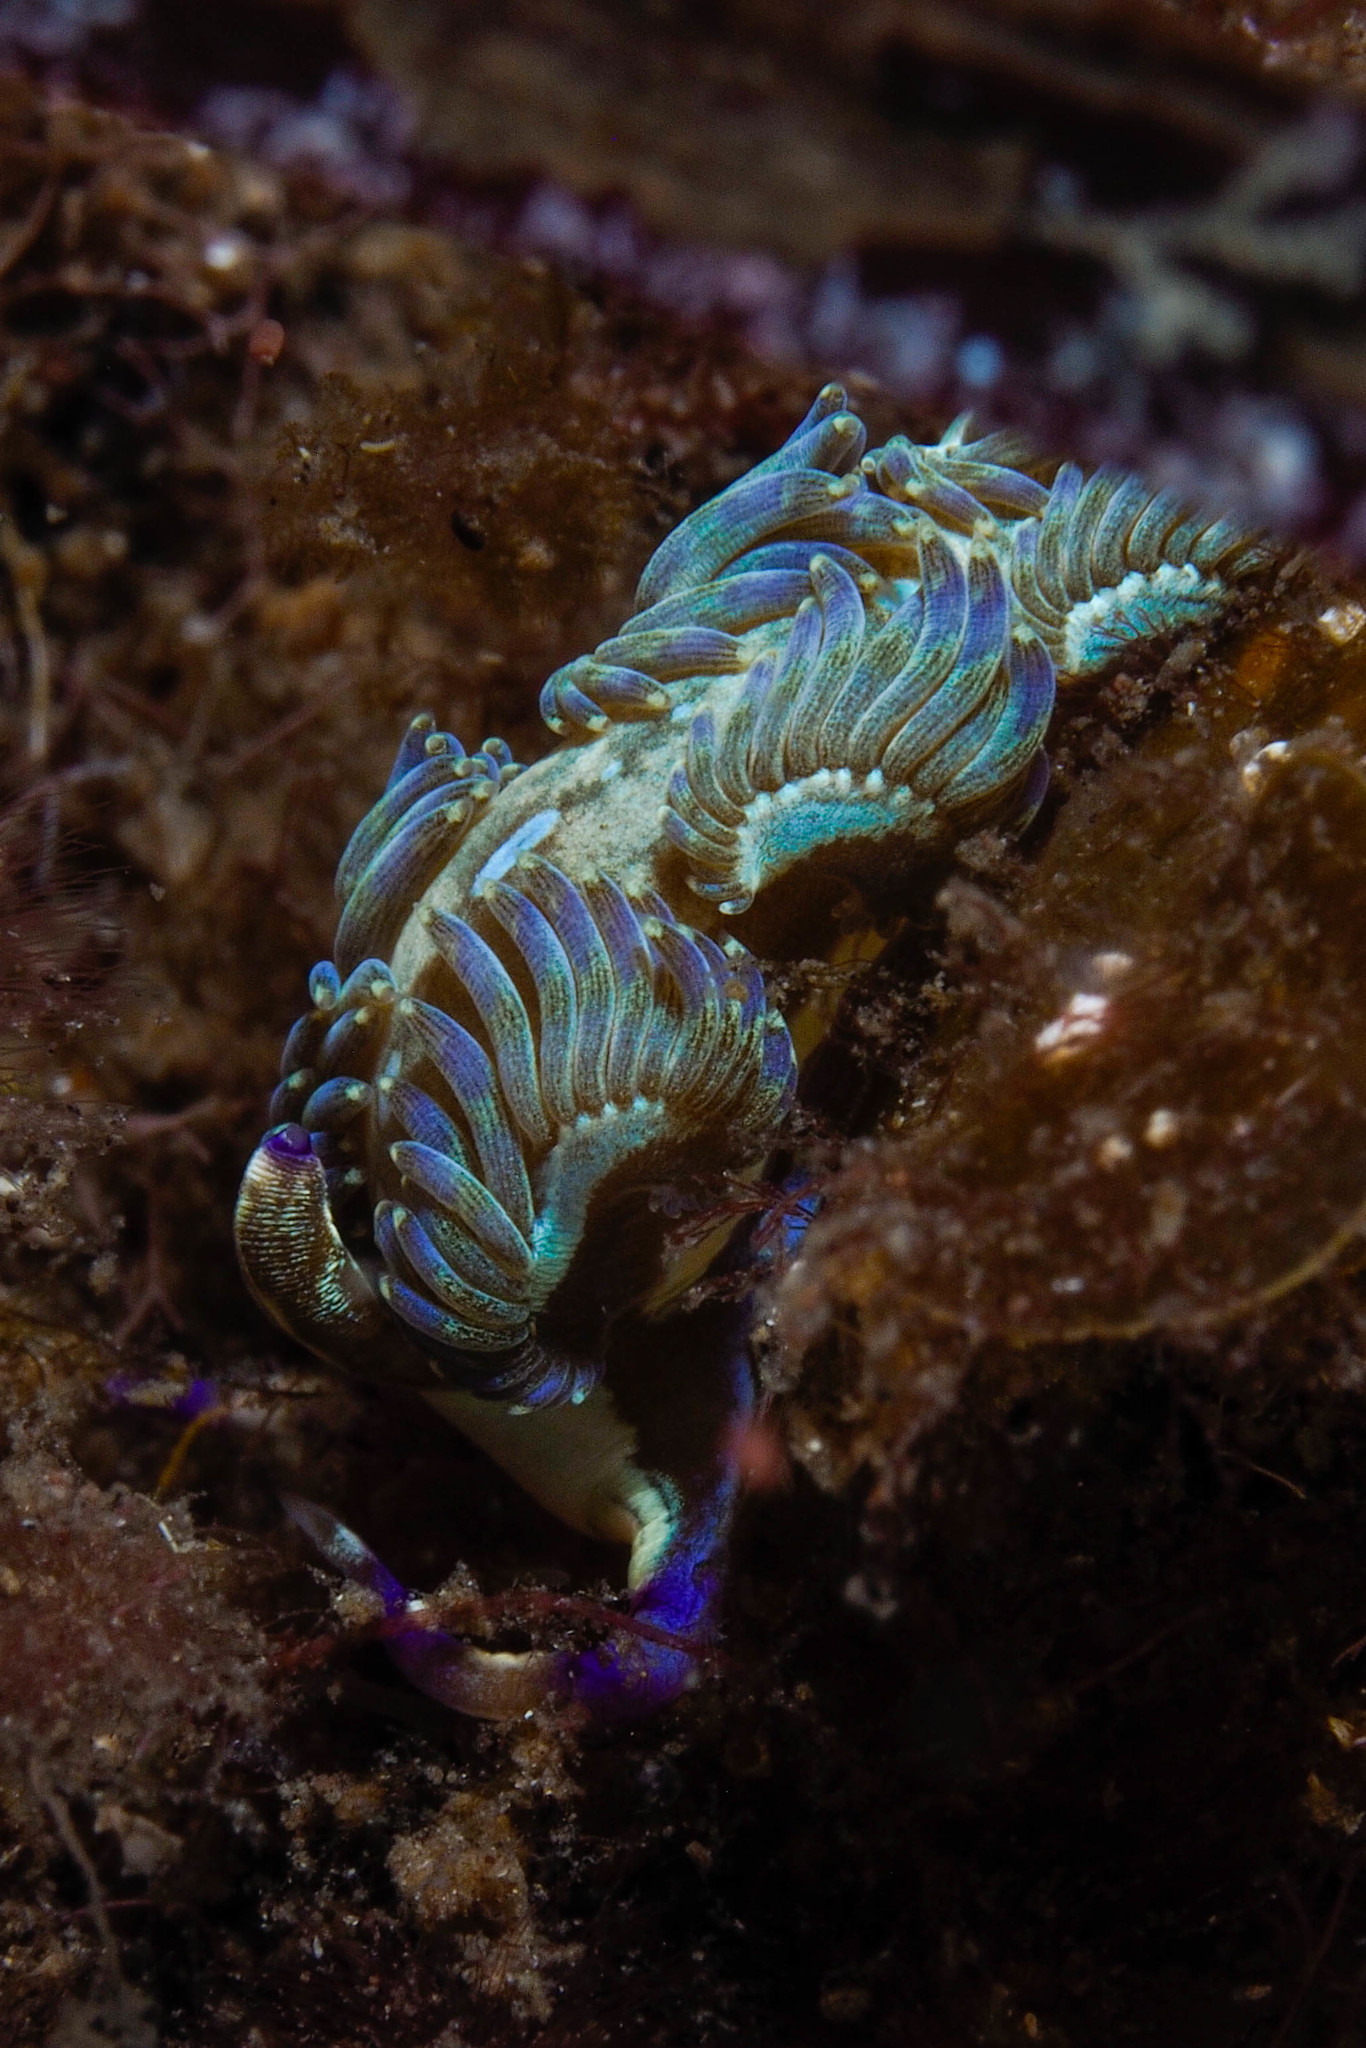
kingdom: Animalia
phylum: Mollusca
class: Gastropoda
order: Nudibranchia
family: Facelinidae
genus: Pteraeolidia
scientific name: Pteraeolidia semperi
